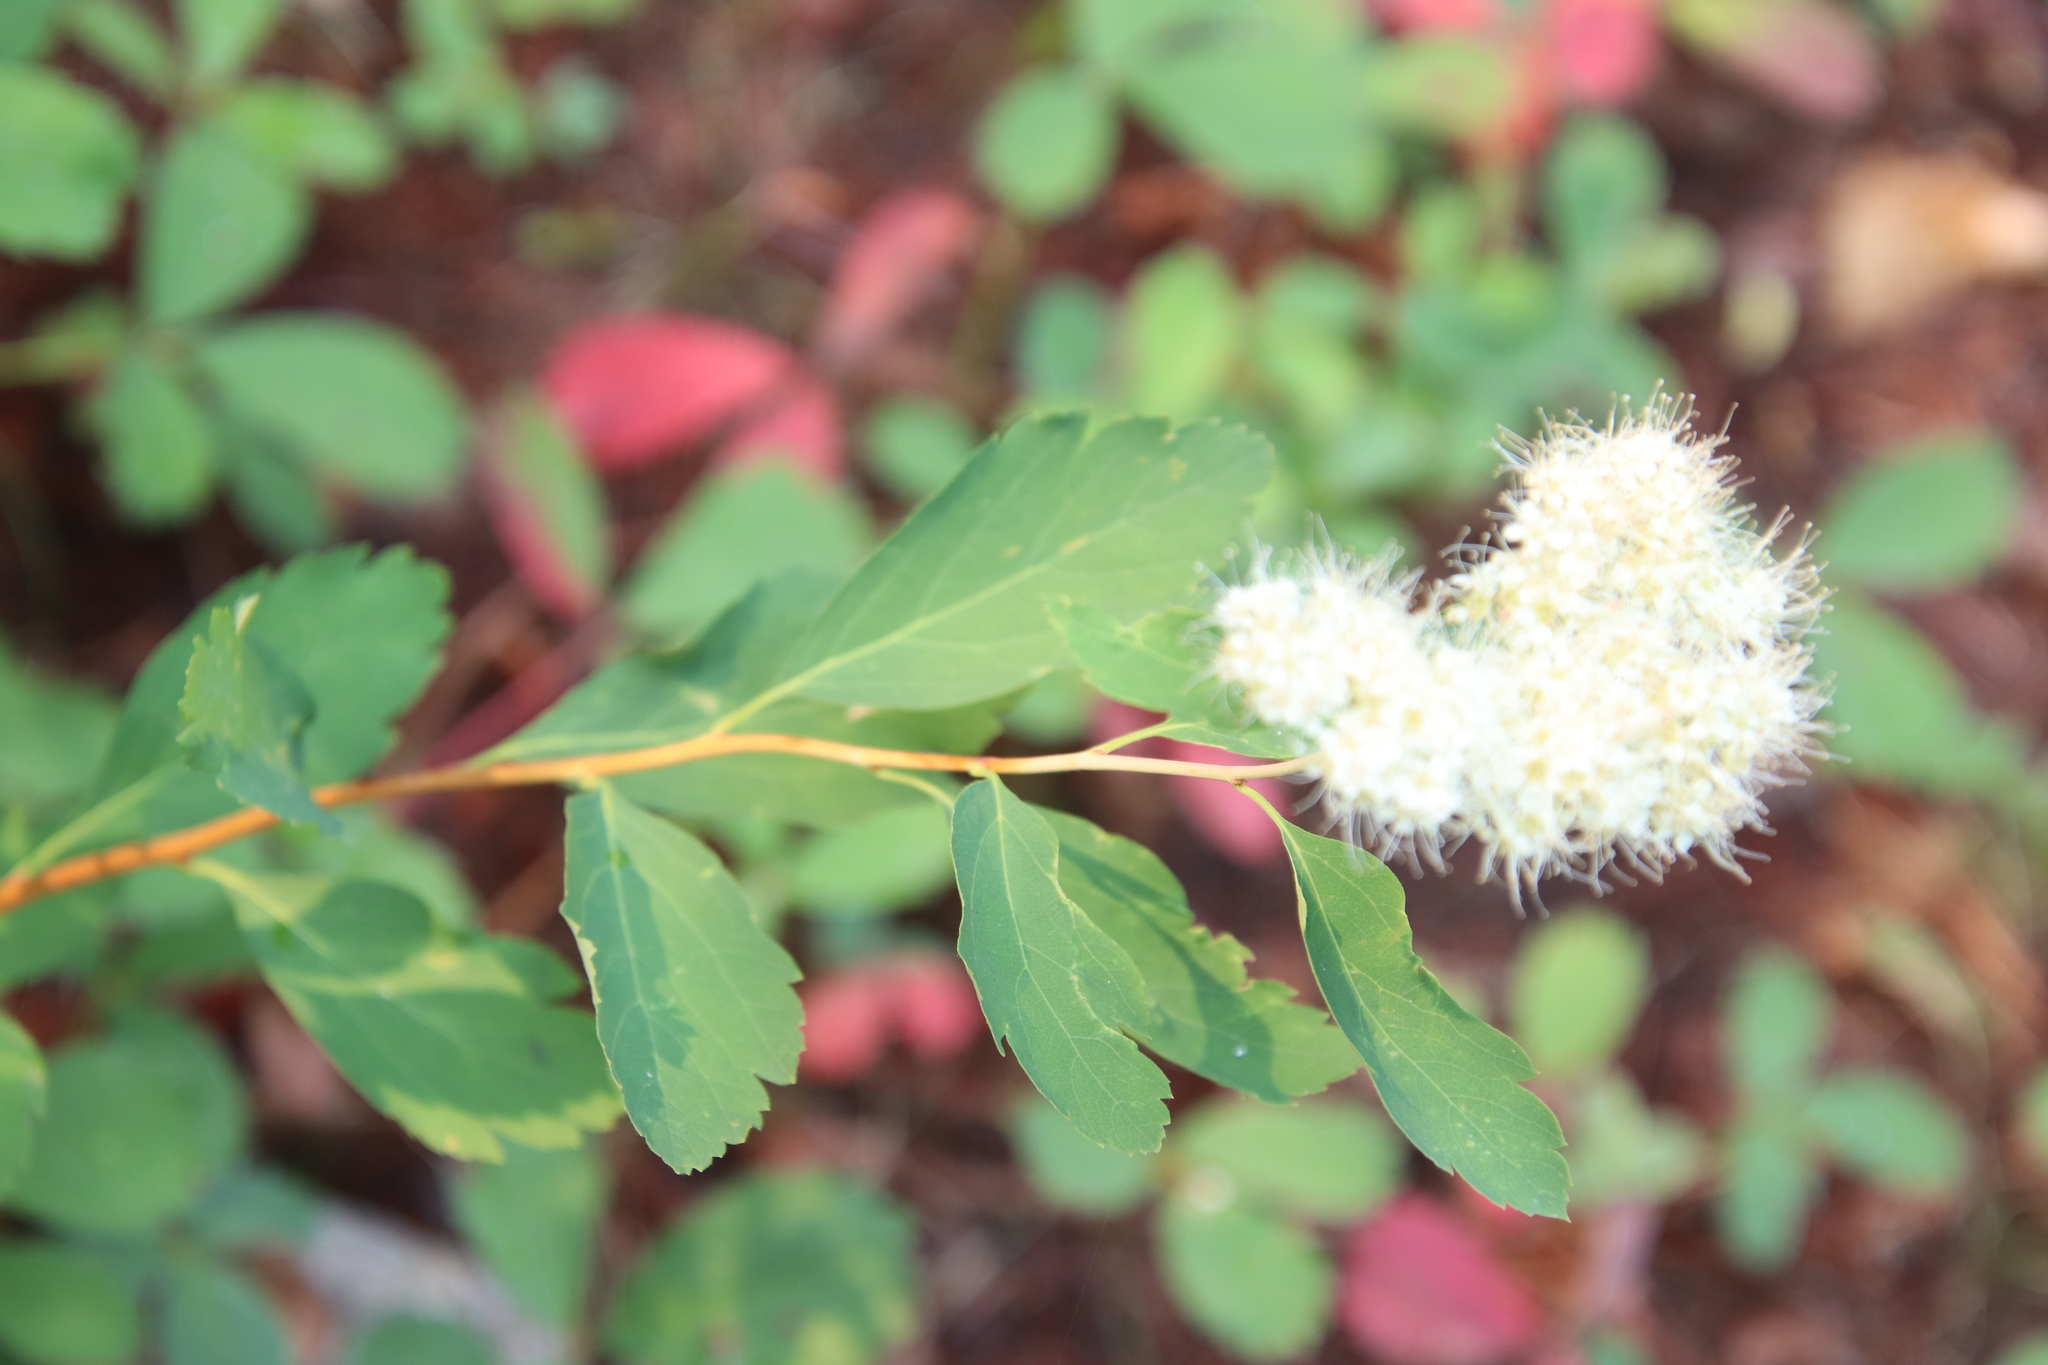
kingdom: Plantae
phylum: Tracheophyta
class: Magnoliopsida
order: Rosales
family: Rosaceae
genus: Spiraea
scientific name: Spiraea lucida
